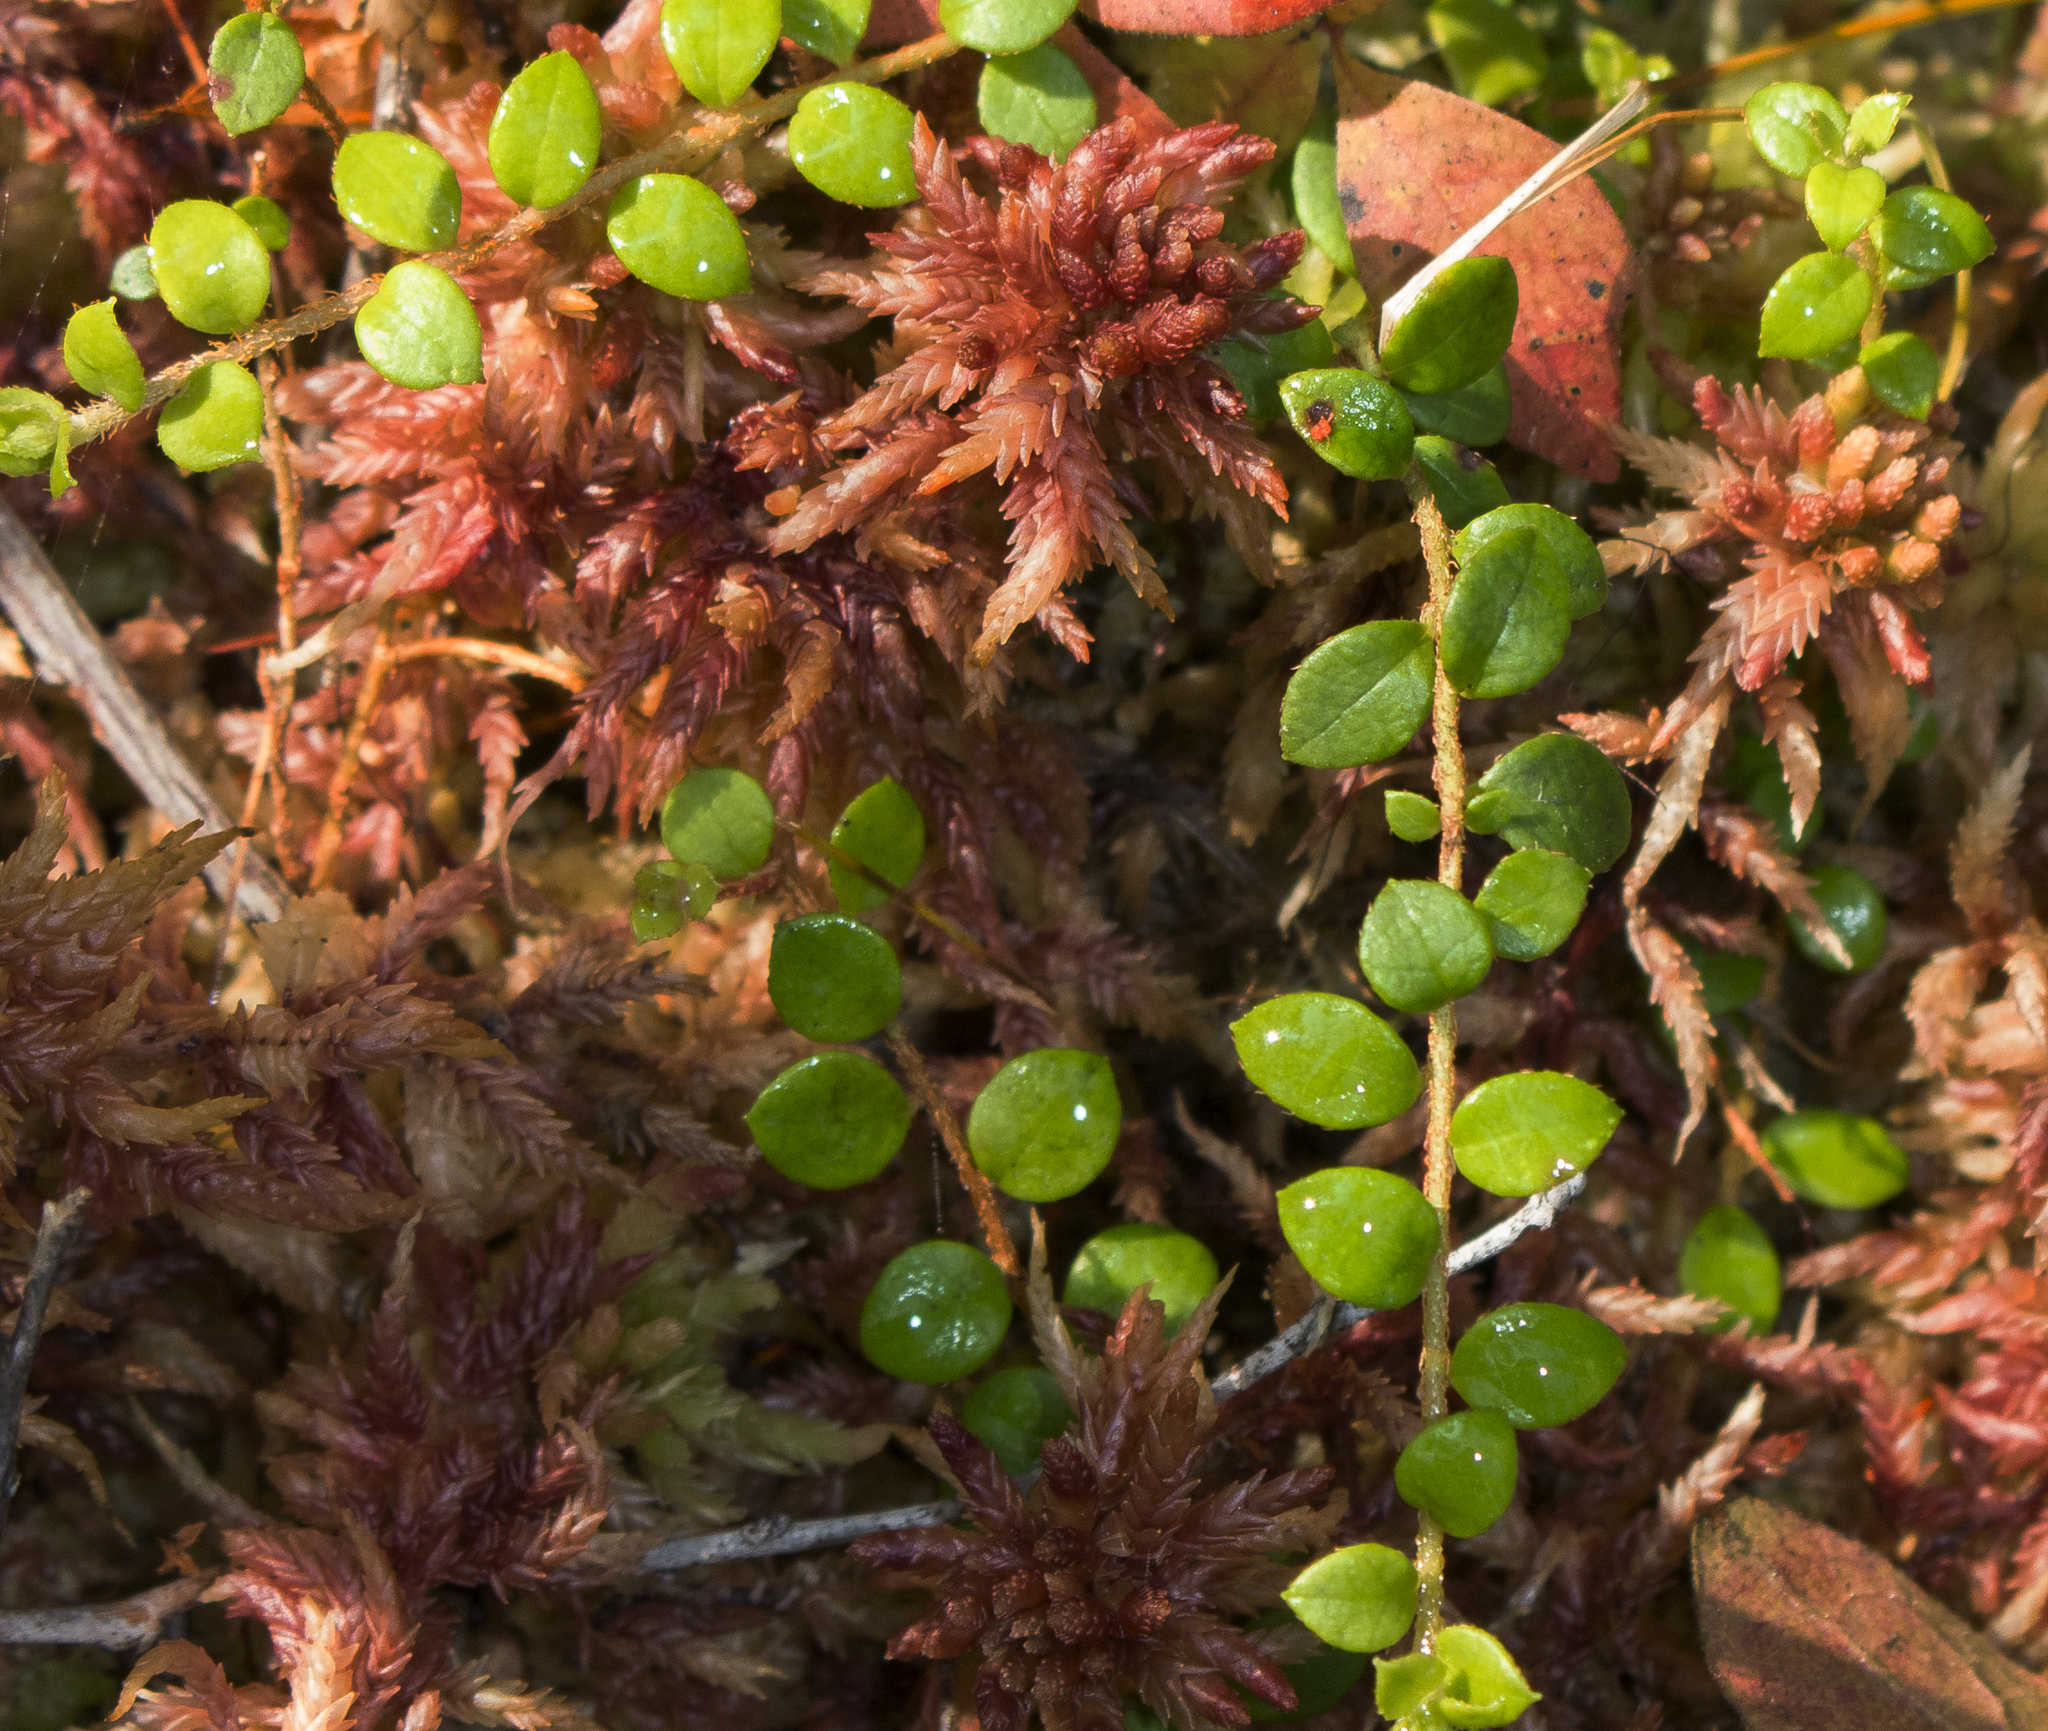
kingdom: Plantae
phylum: Tracheophyta
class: Magnoliopsida
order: Ericales
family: Ericaceae
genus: Gaultheria
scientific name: Gaultheria hispidula
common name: Cancer wintergreen
